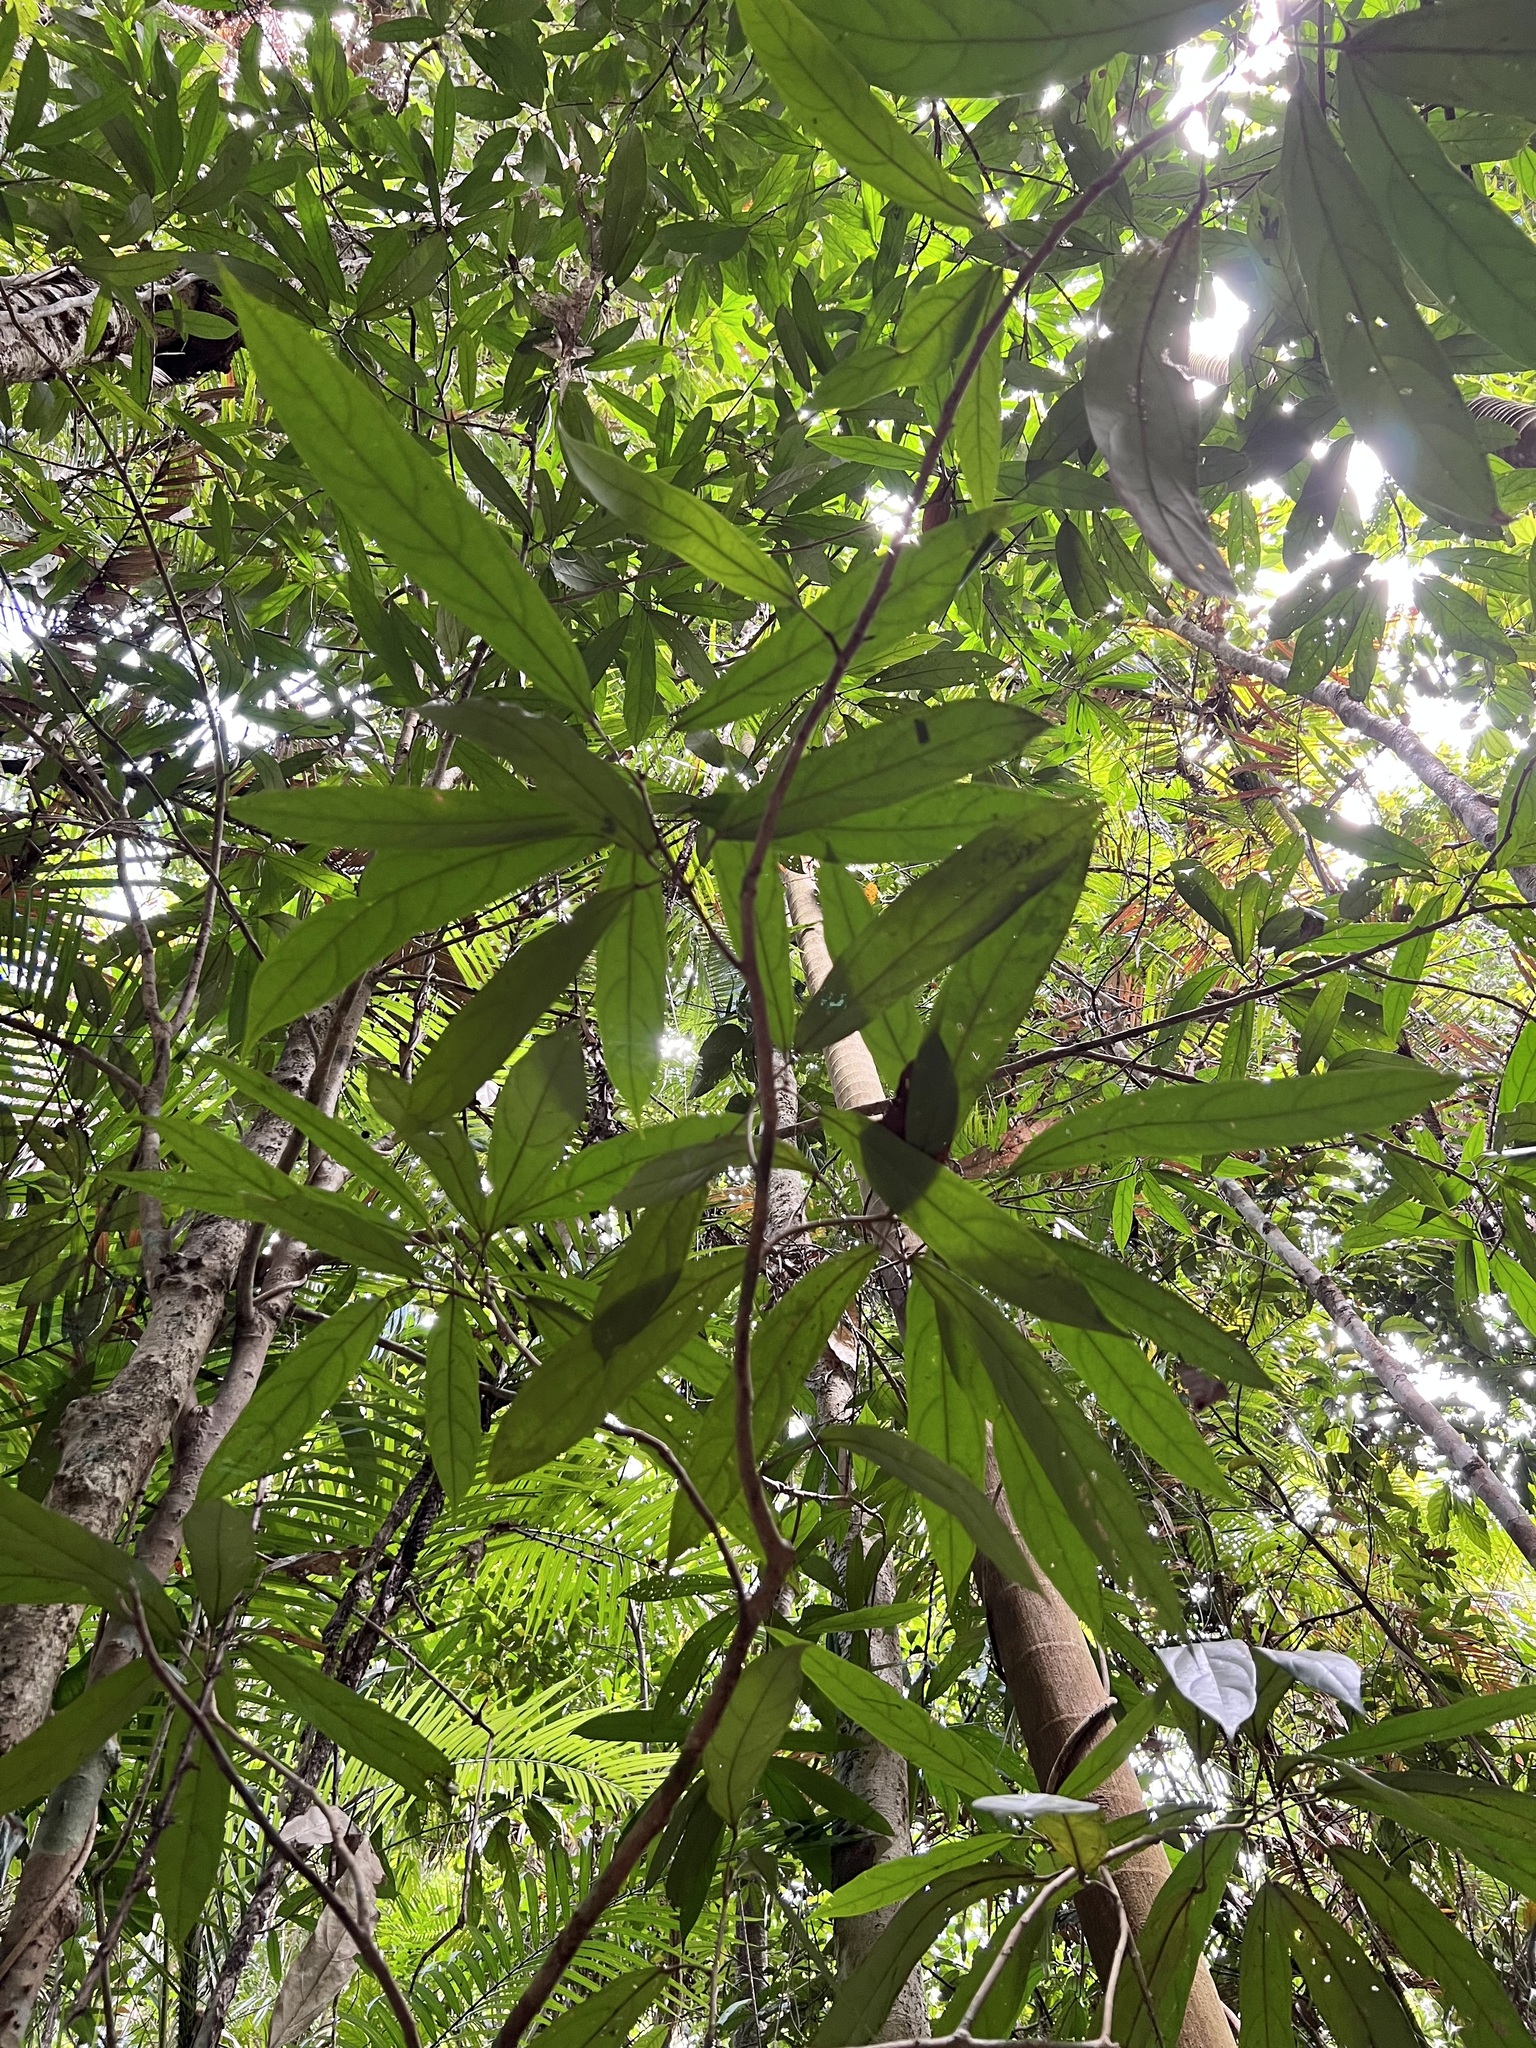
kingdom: Plantae
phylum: Tracheophyta
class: Magnoliopsida
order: Malpighiales
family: Achariaceae
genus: Ryparosa
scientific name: Ryparosa kurrangii
